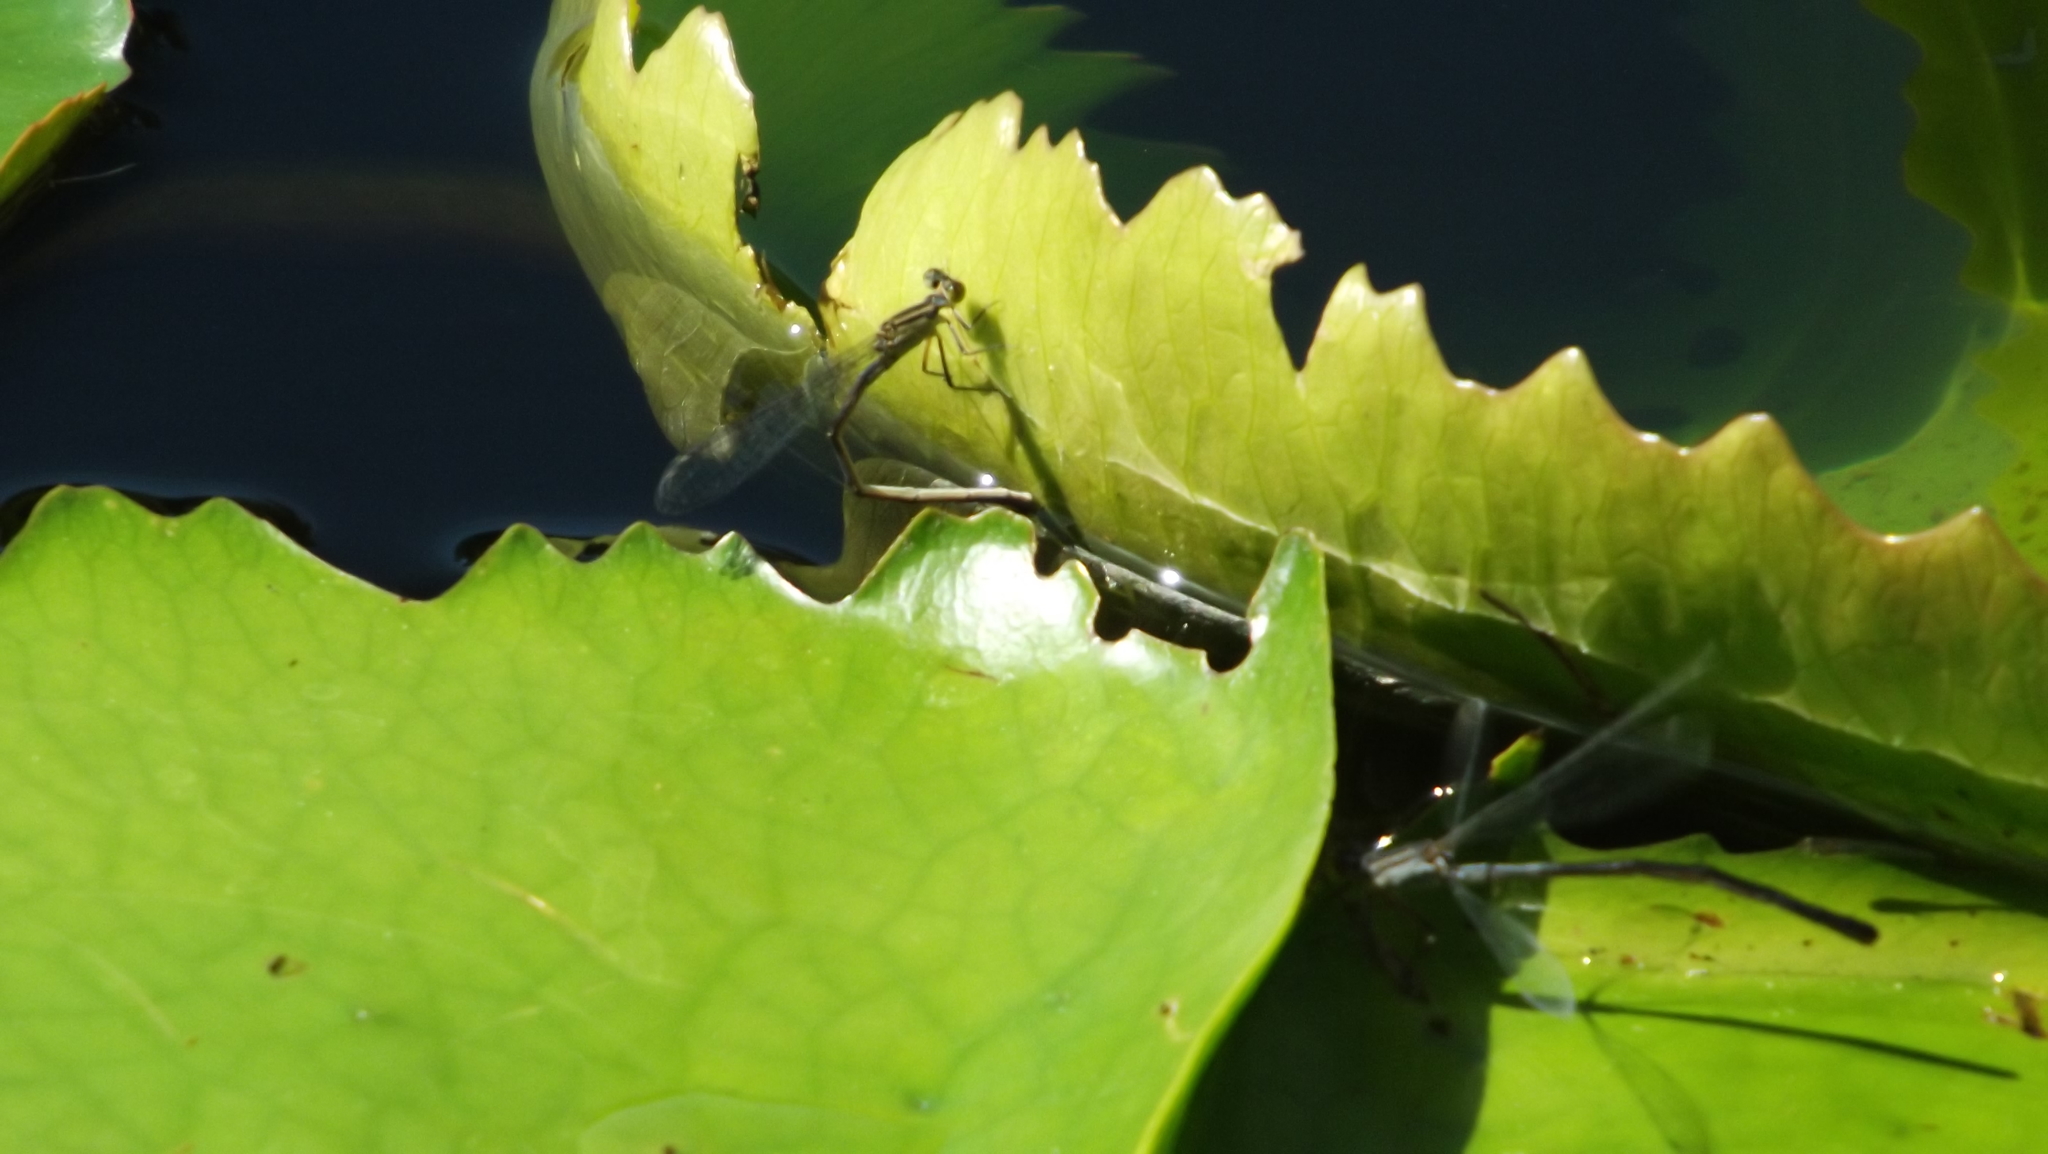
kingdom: Animalia
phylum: Arthropoda
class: Insecta
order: Odonata
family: Coenagrionidae
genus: Ischnura
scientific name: Ischnura heterosticta
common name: Common bluetail
